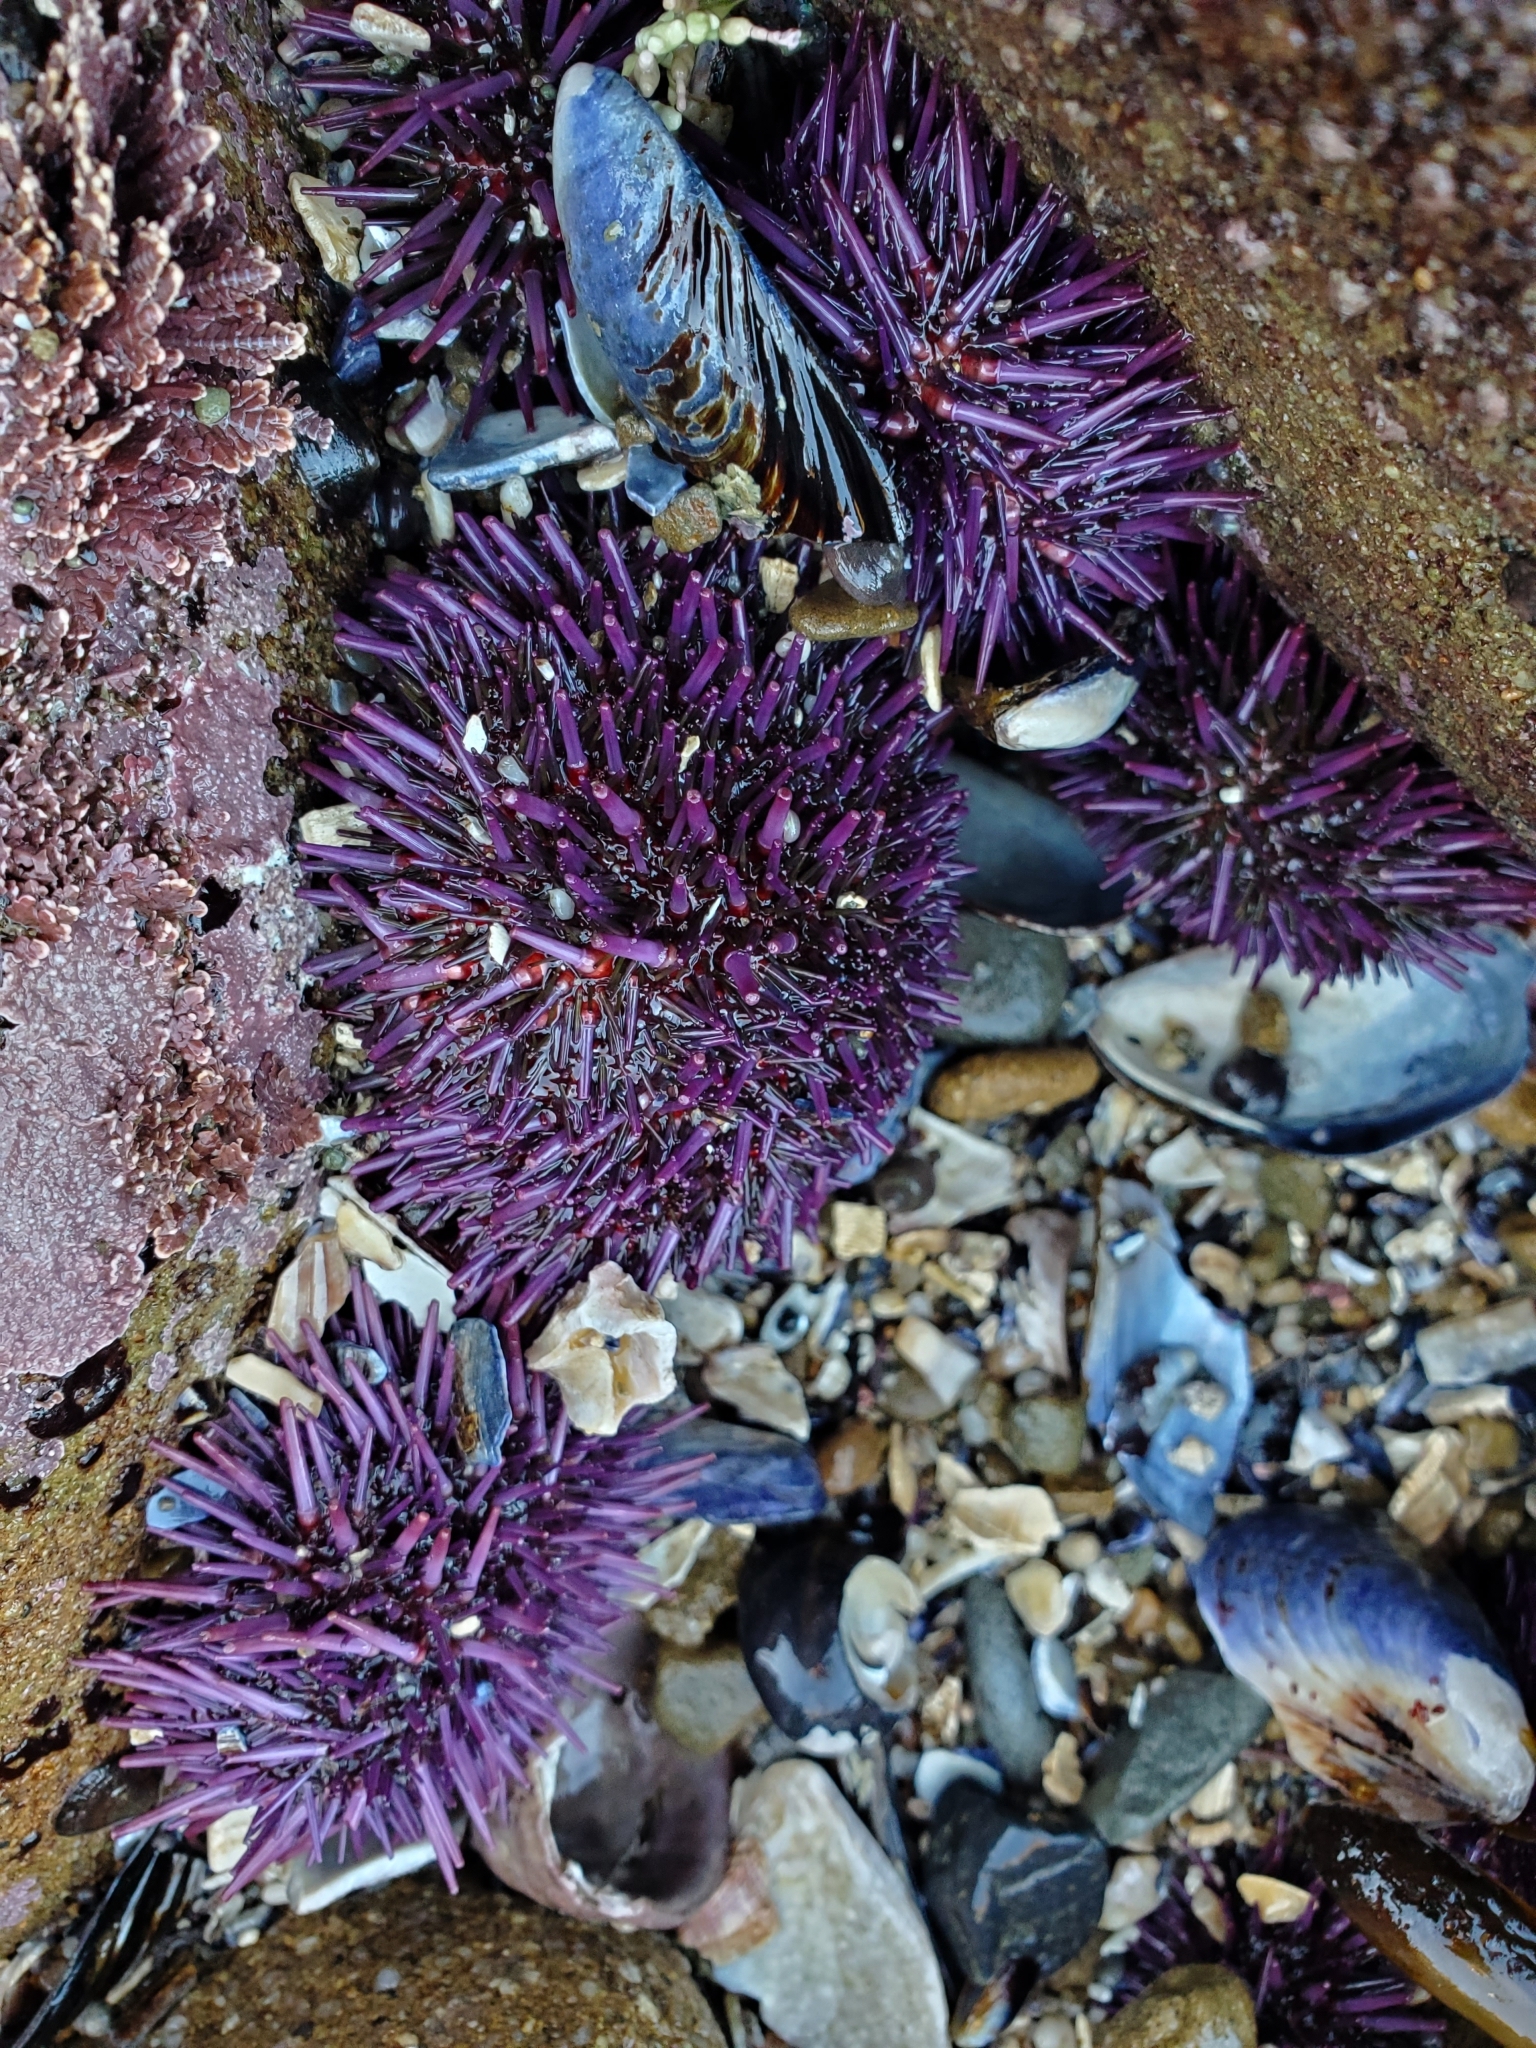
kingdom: Animalia
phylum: Echinodermata
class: Echinoidea
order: Camarodonta
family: Strongylocentrotidae
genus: Strongylocentrotus
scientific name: Strongylocentrotus purpuratus
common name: Purple sea urchin
